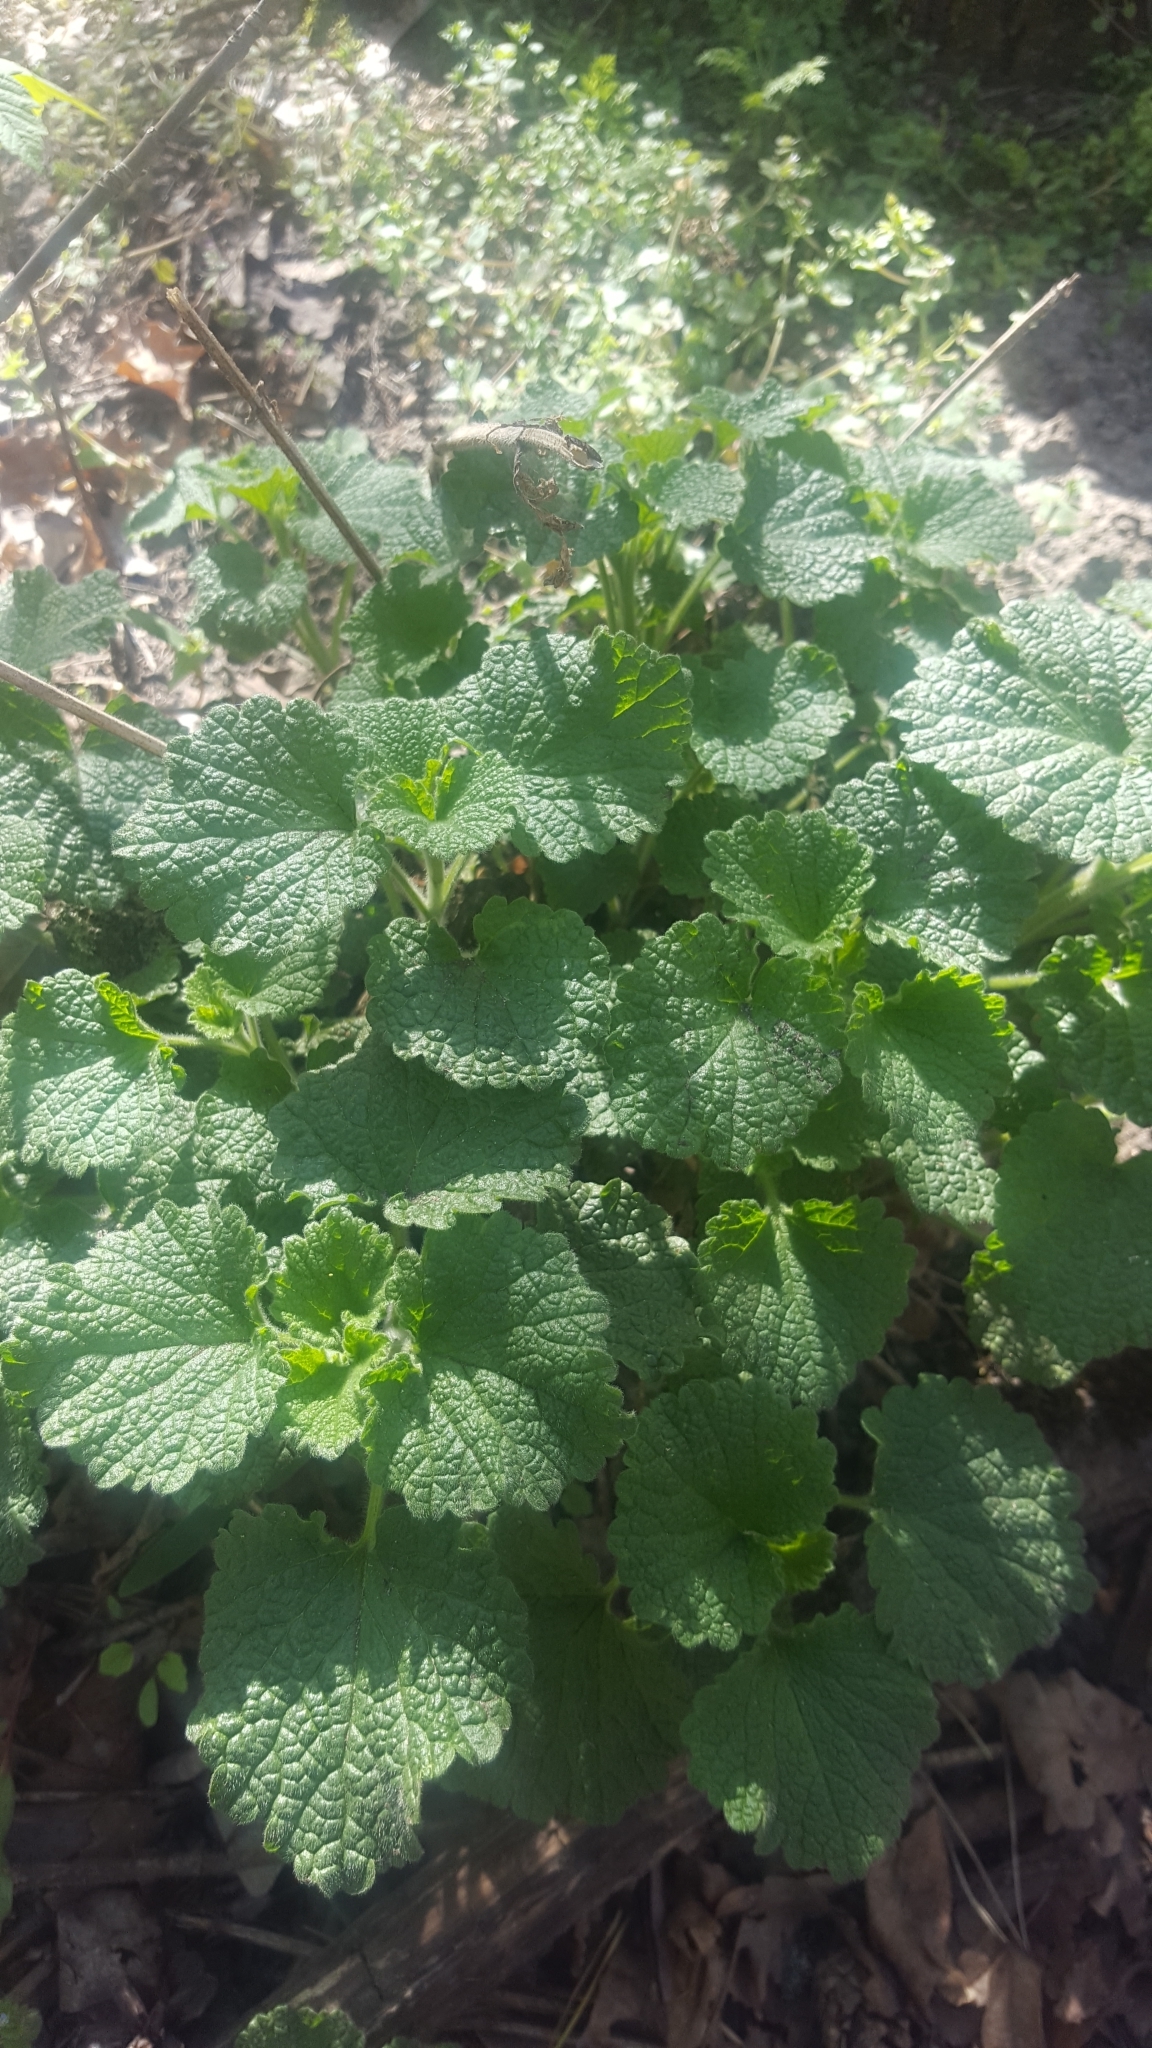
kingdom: Plantae
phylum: Tracheophyta
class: Magnoliopsida
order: Lamiales
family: Lamiaceae
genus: Ballota
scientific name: Ballota nigra
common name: Black horehound
